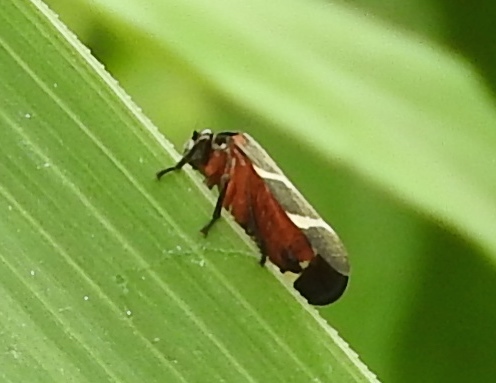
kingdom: Animalia
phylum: Arthropoda
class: Insecta
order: Hemiptera
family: Cercopidae
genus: Aeneolamia
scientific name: Aeneolamia
